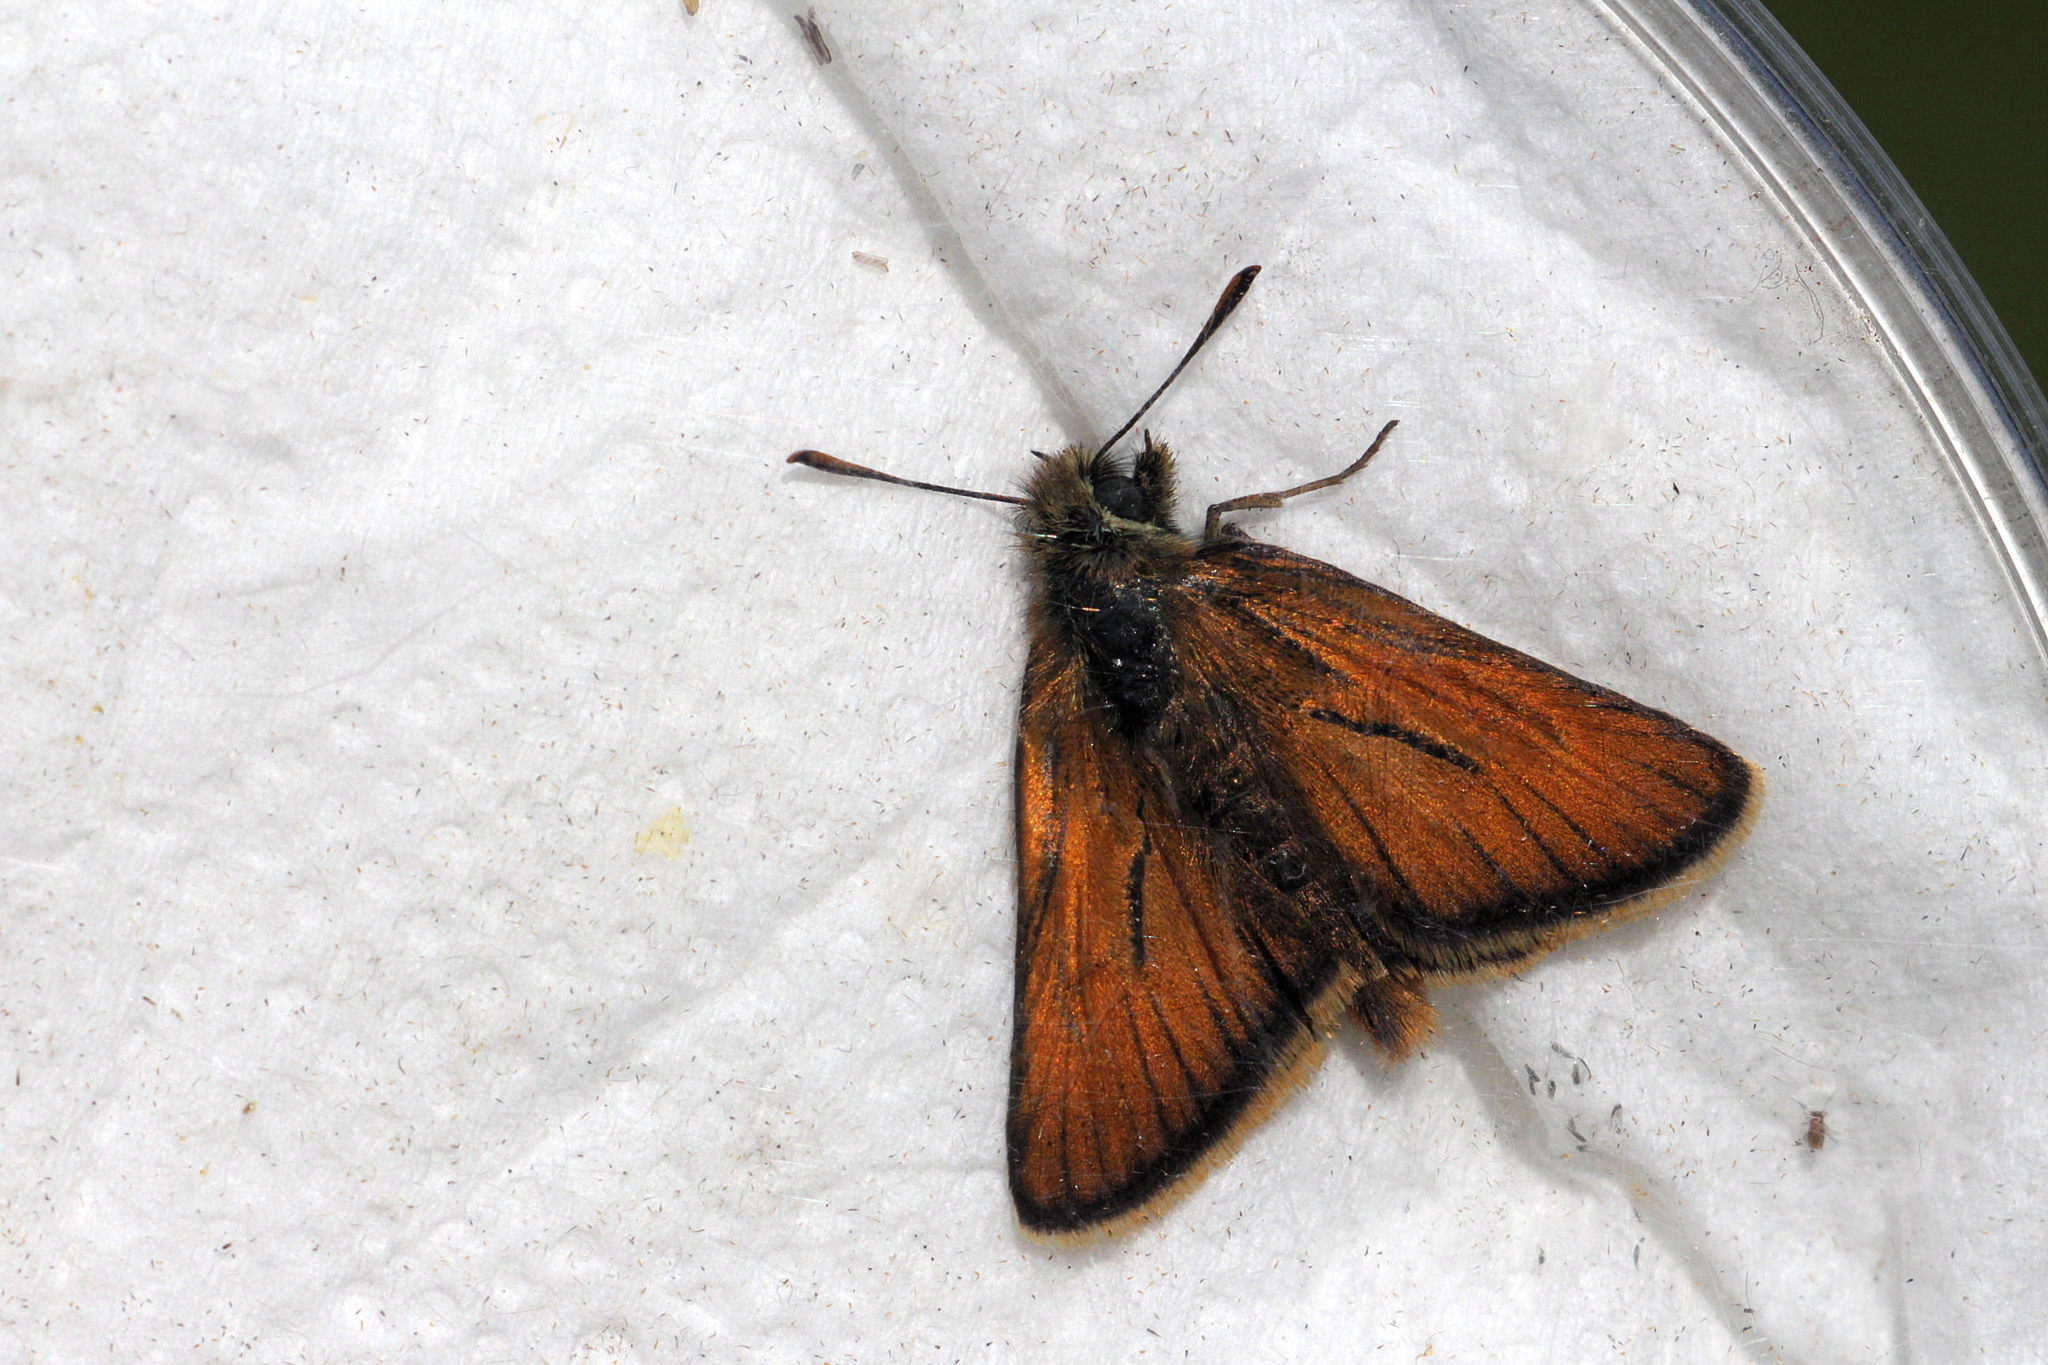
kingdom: Animalia
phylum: Arthropoda
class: Insecta
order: Lepidoptera
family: Hesperiidae
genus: Thymelicus
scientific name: Thymelicus sylvestris
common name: Small skipper
